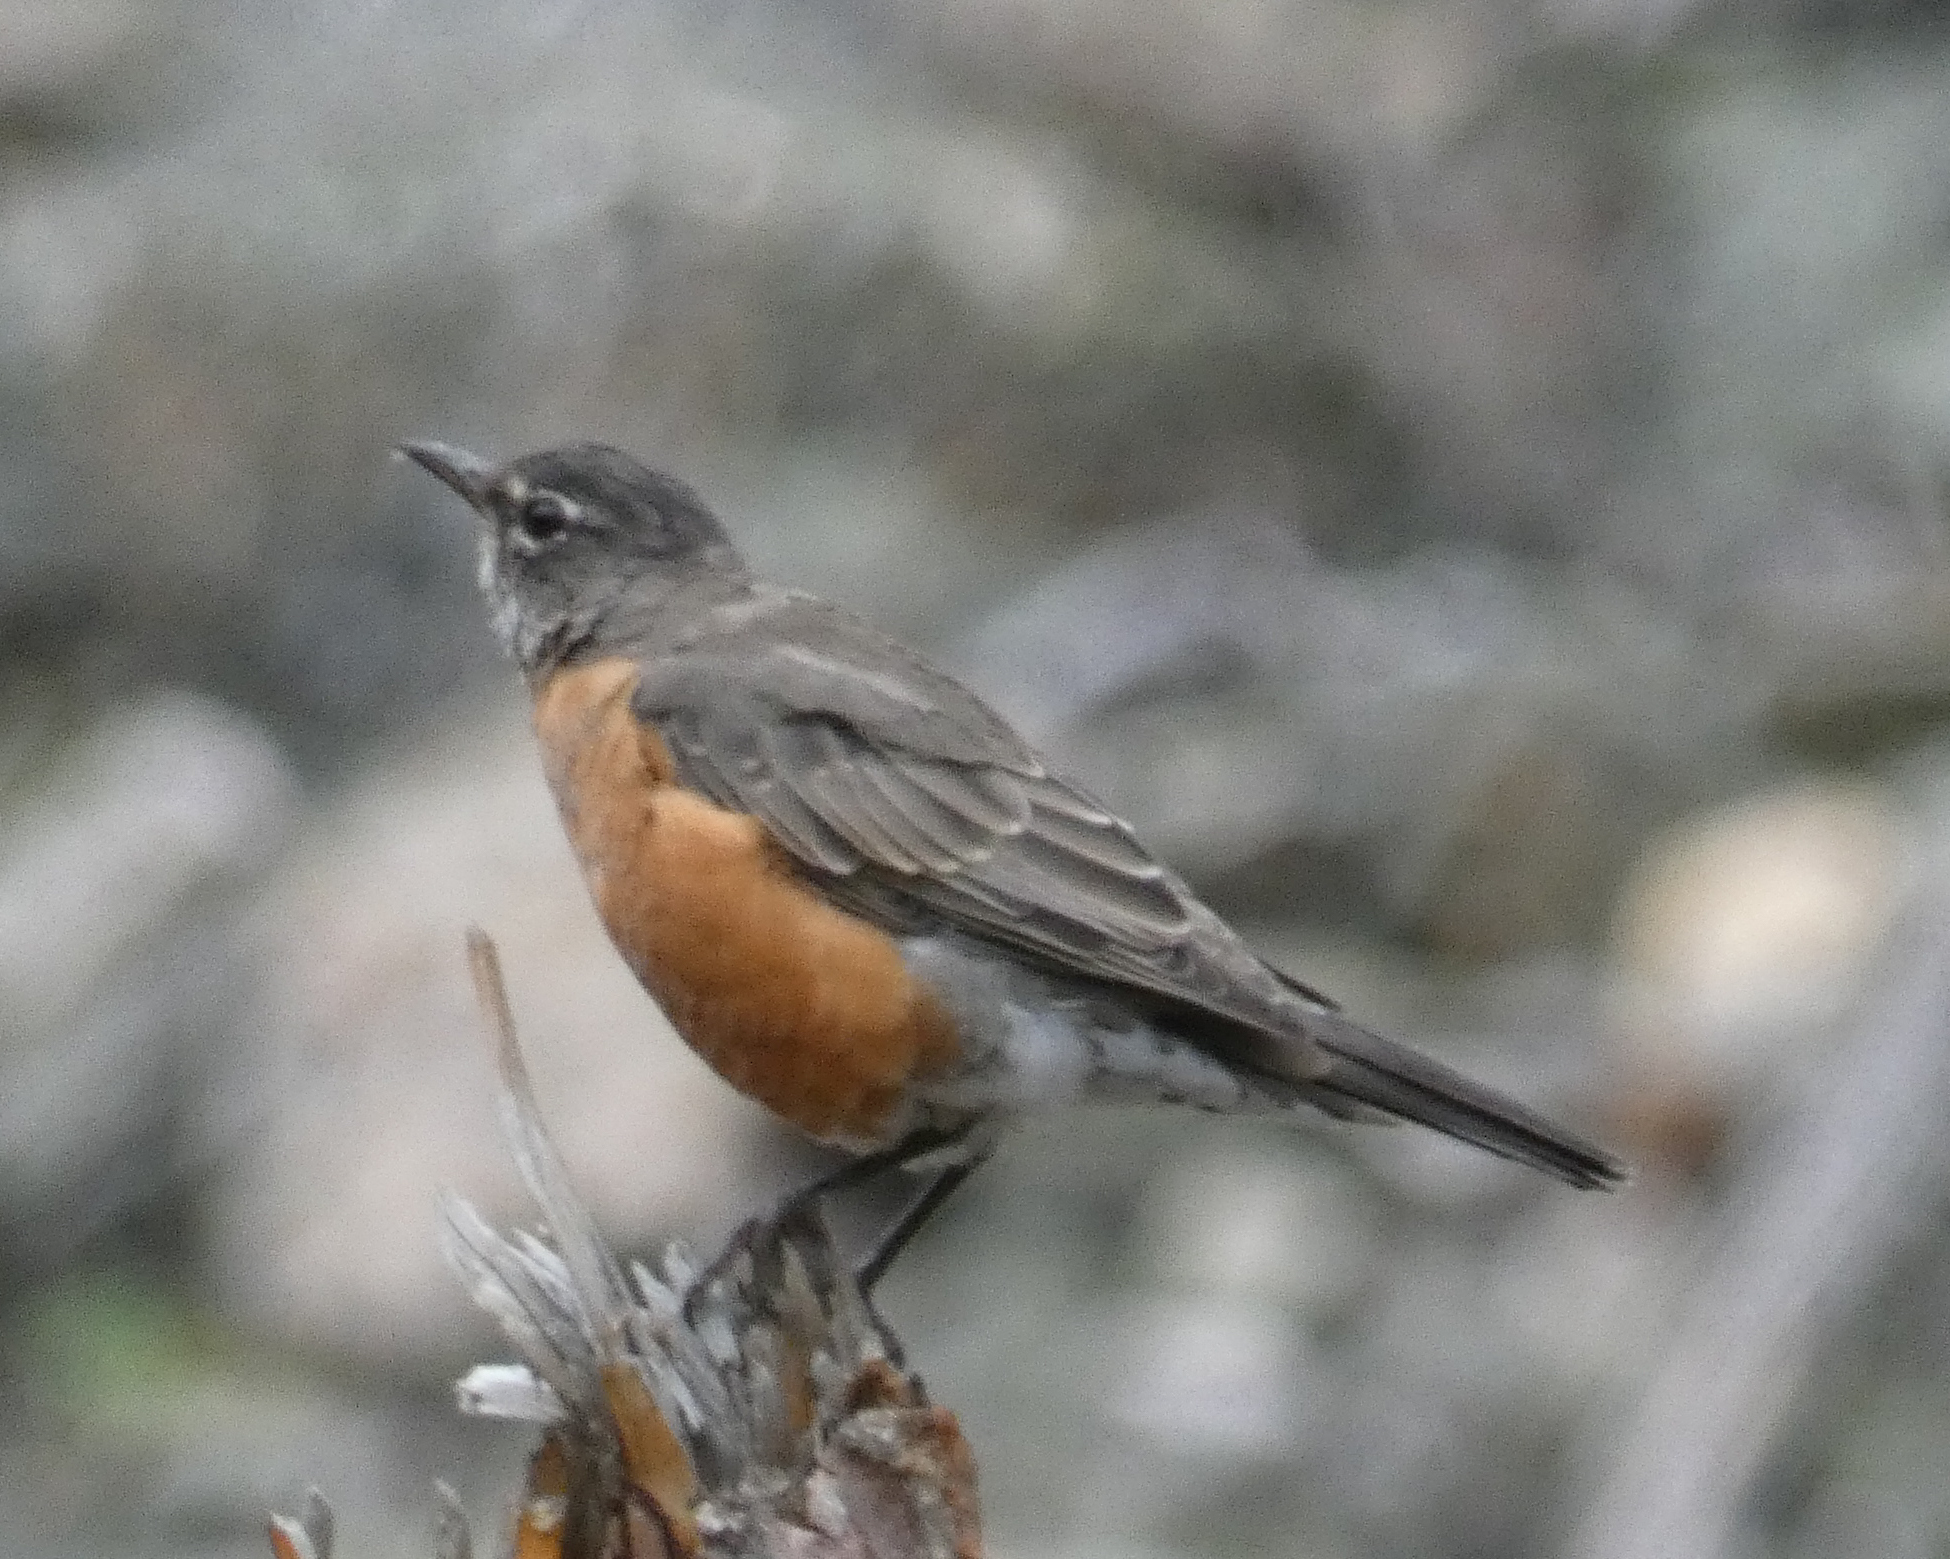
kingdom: Animalia
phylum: Chordata
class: Aves
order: Passeriformes
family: Turdidae
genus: Turdus
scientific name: Turdus migratorius
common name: American robin
